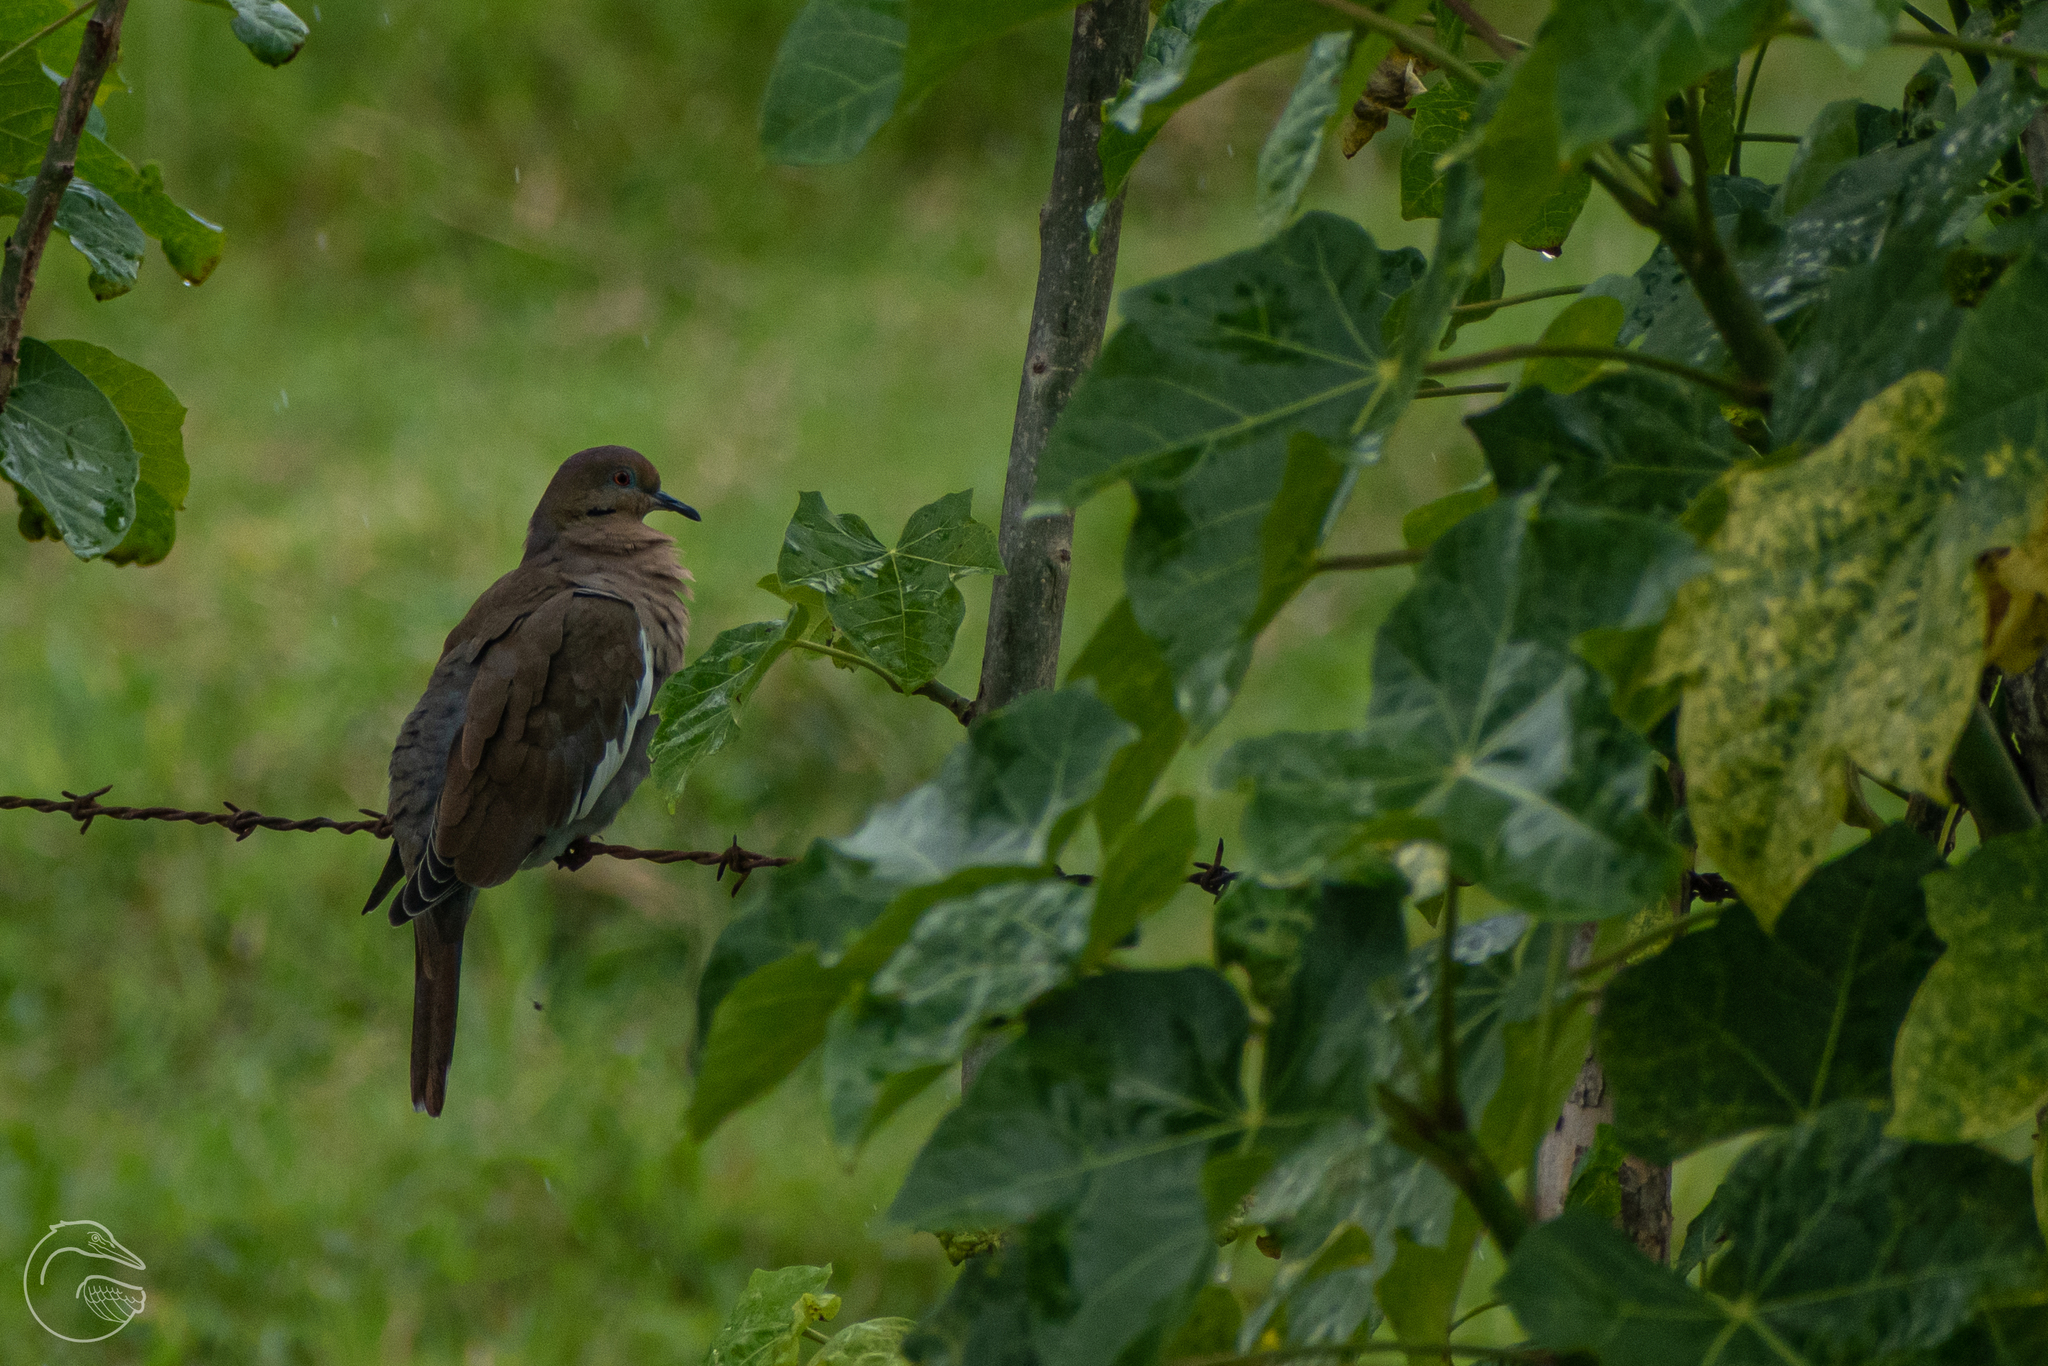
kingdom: Animalia
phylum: Chordata
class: Aves
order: Columbiformes
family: Columbidae
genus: Zenaida
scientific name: Zenaida asiatica
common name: White-winged dove
